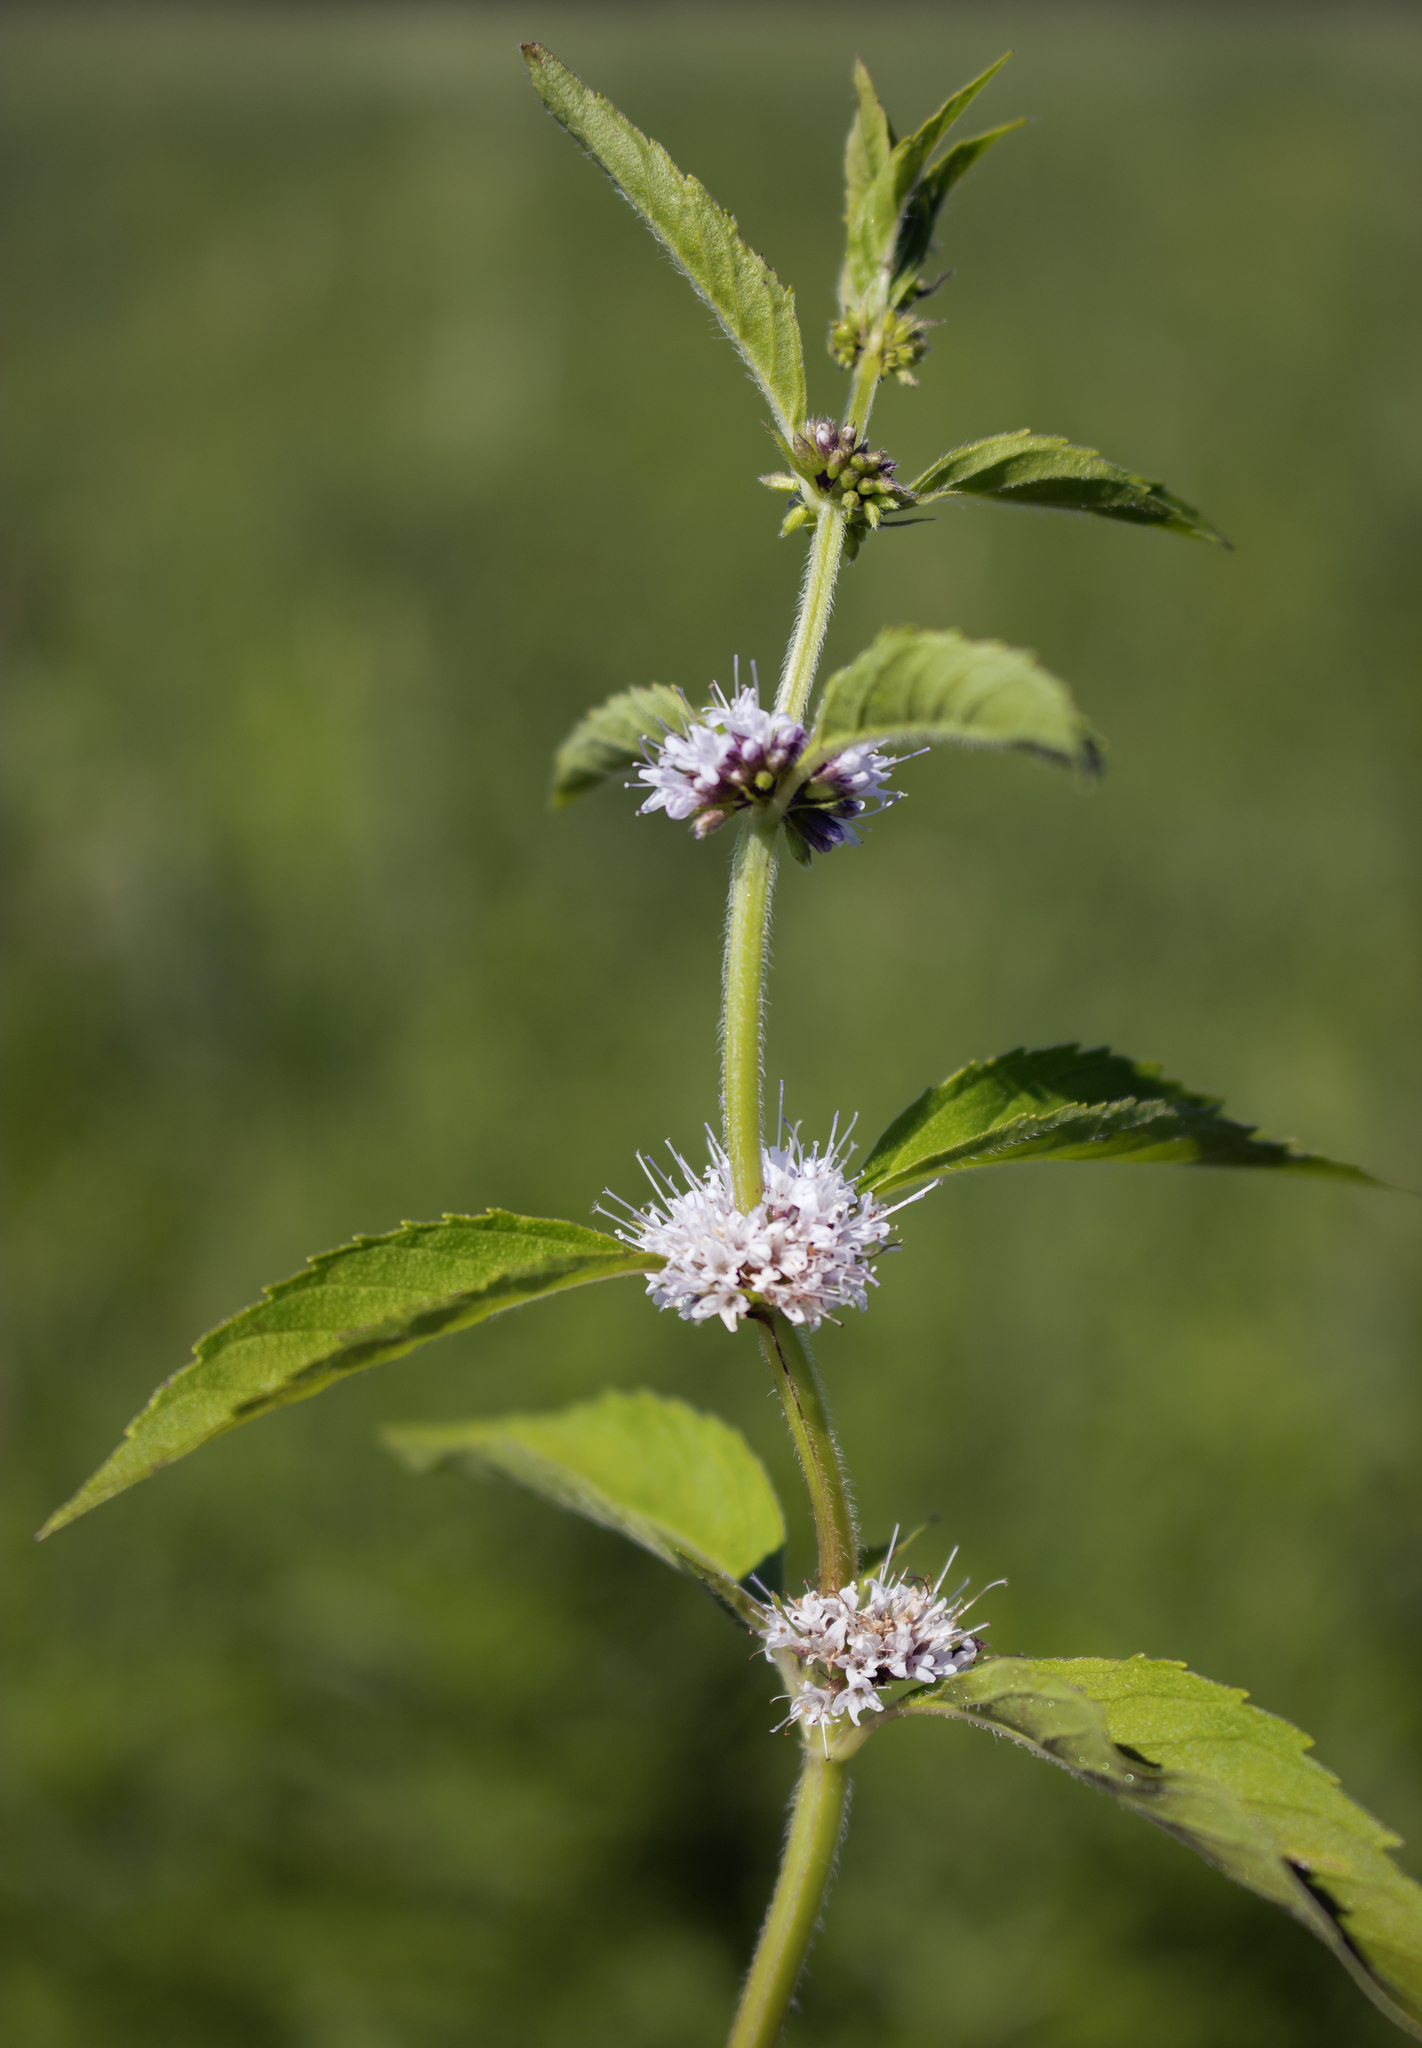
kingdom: Plantae
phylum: Tracheophyta
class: Magnoliopsida
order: Lamiales
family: Lamiaceae
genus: Mentha
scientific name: Mentha arvensis
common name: Corn mint
